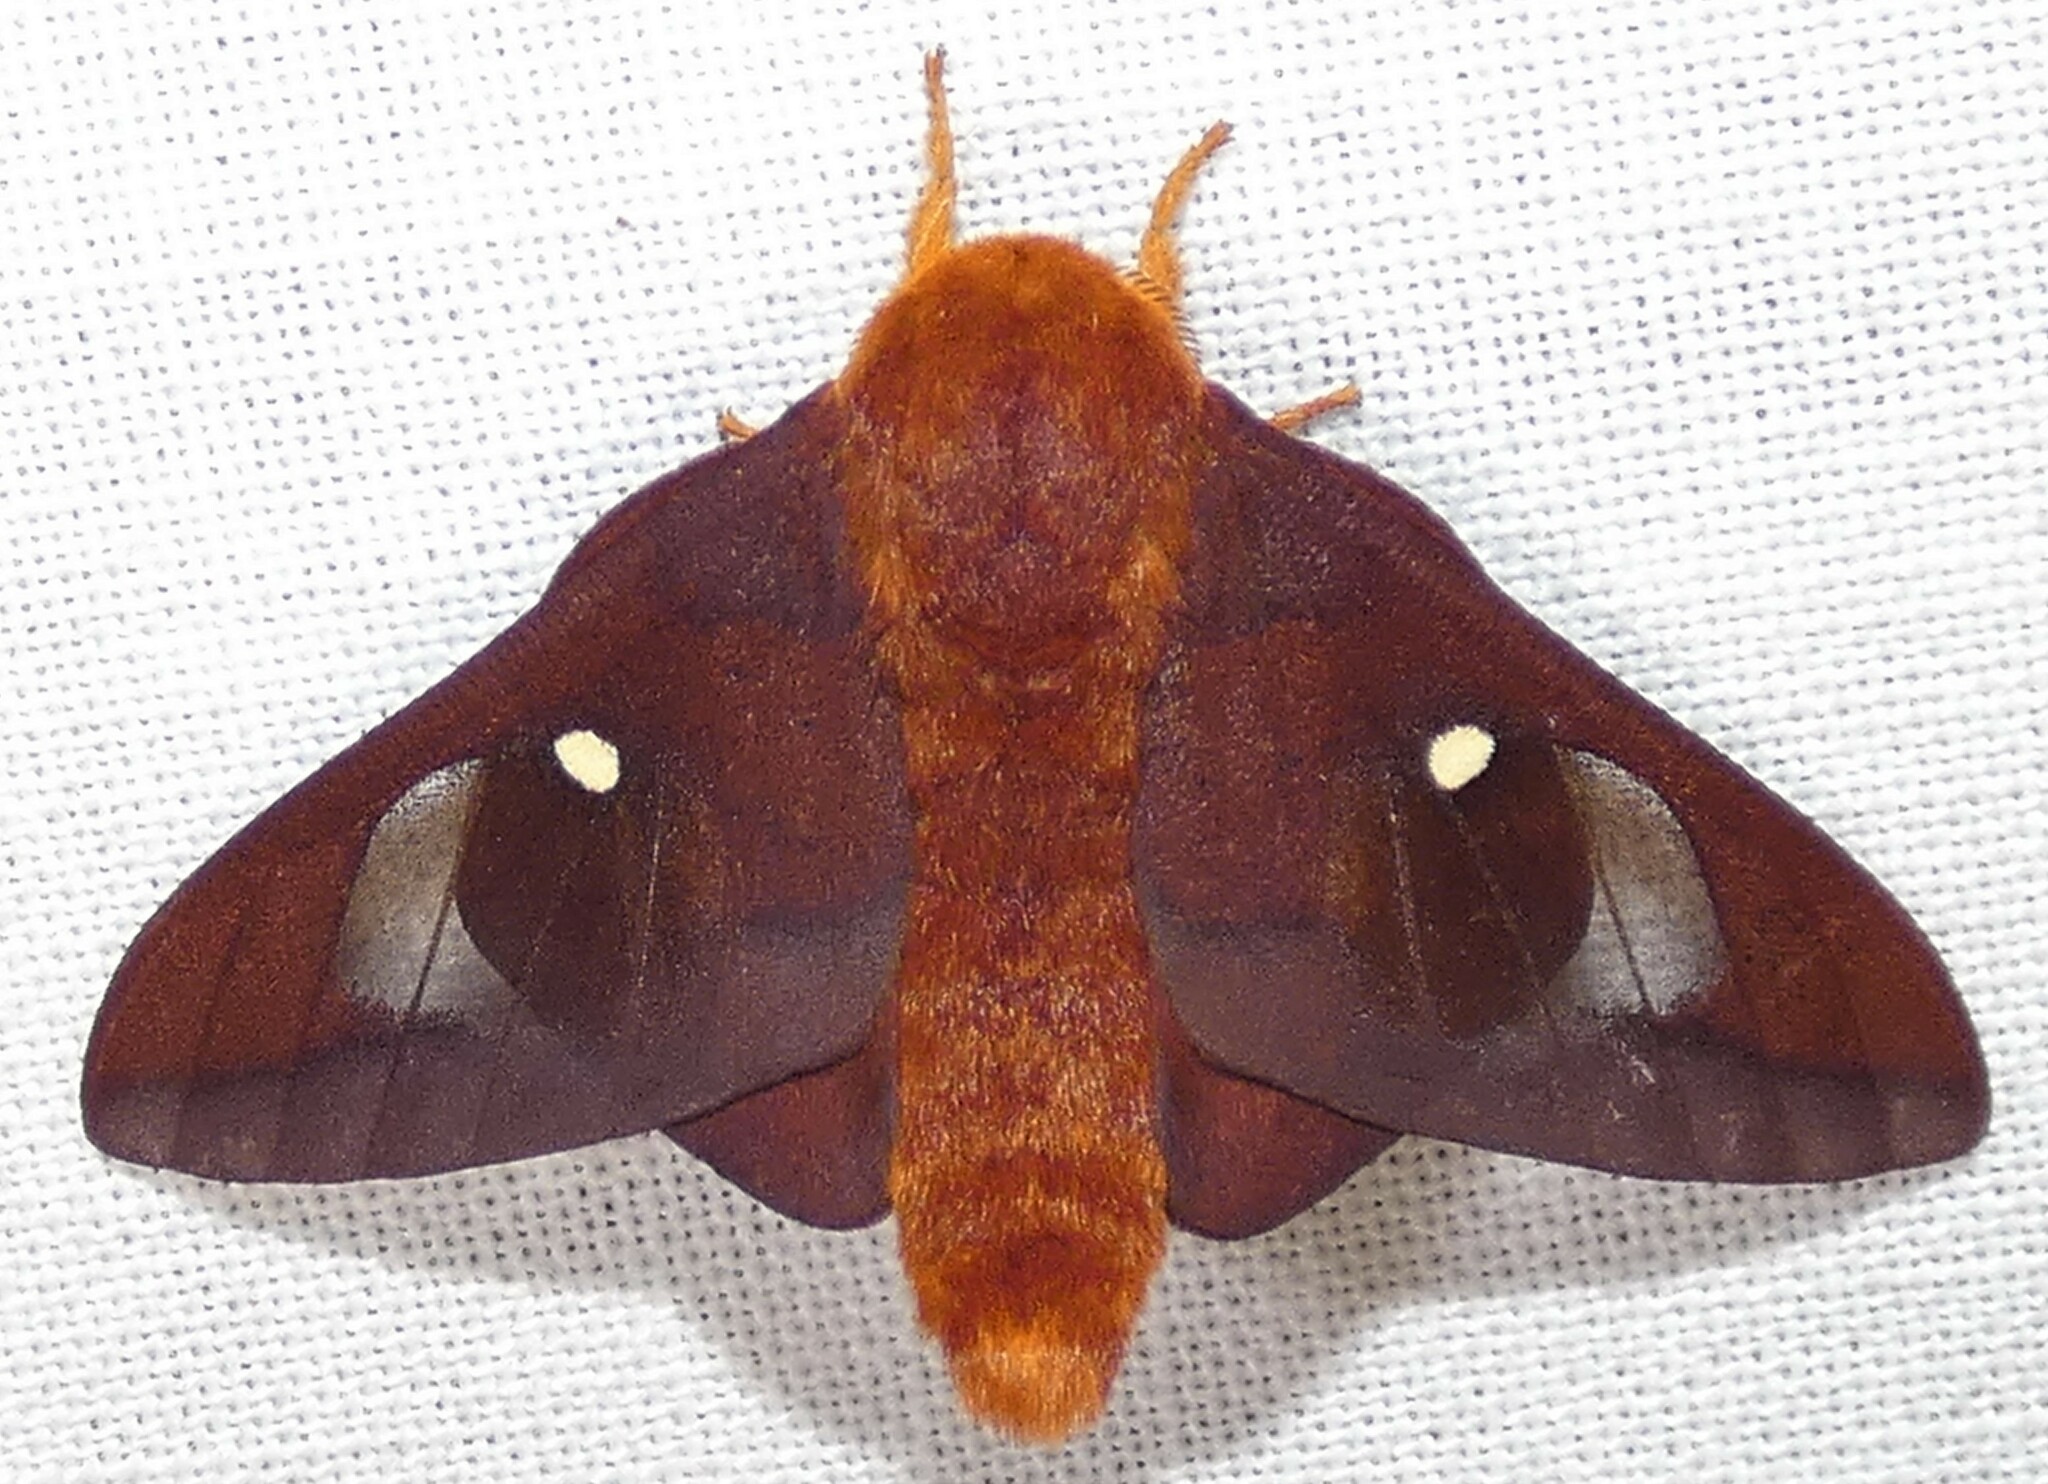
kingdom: Animalia
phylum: Arthropoda
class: Insecta
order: Lepidoptera
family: Saturniidae
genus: Anisota
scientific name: Anisota virginiensis
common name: Pink striped oakworm moth
